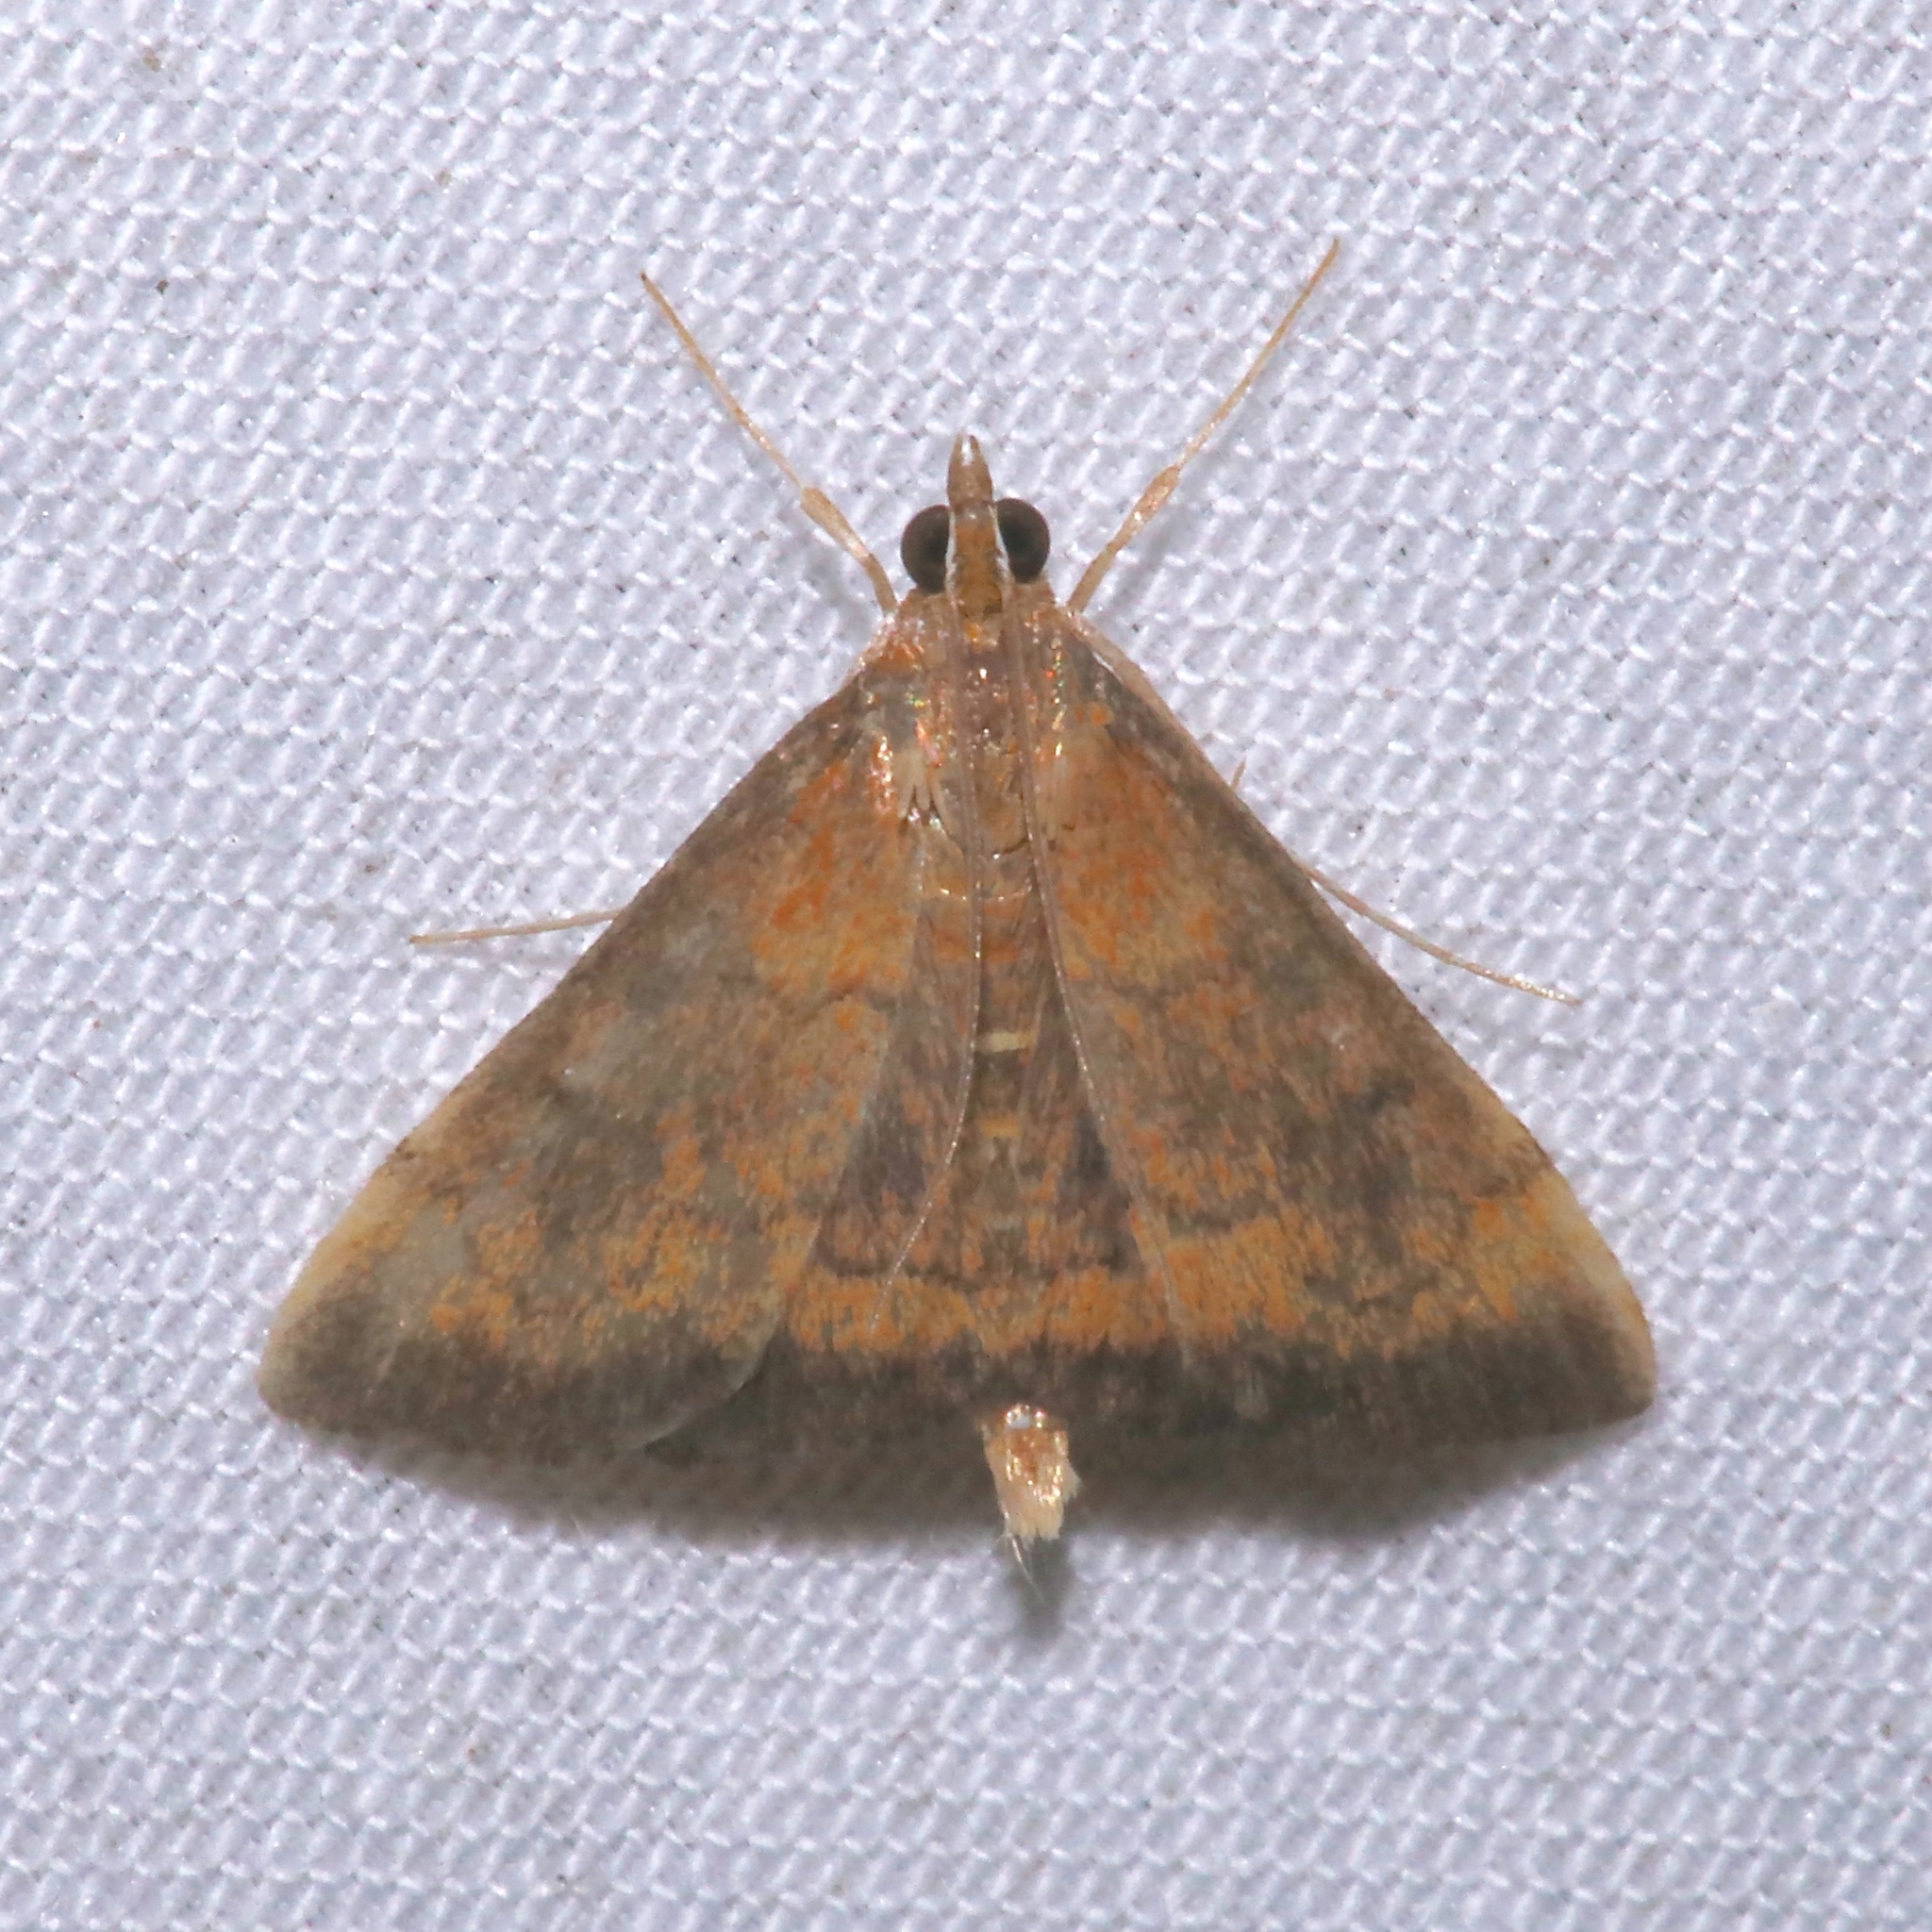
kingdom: Animalia
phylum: Arthropoda
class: Insecta
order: Lepidoptera
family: Crambidae
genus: Pyrausta
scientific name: Pyrausta rubricalis
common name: Variable reddish pyrausta
